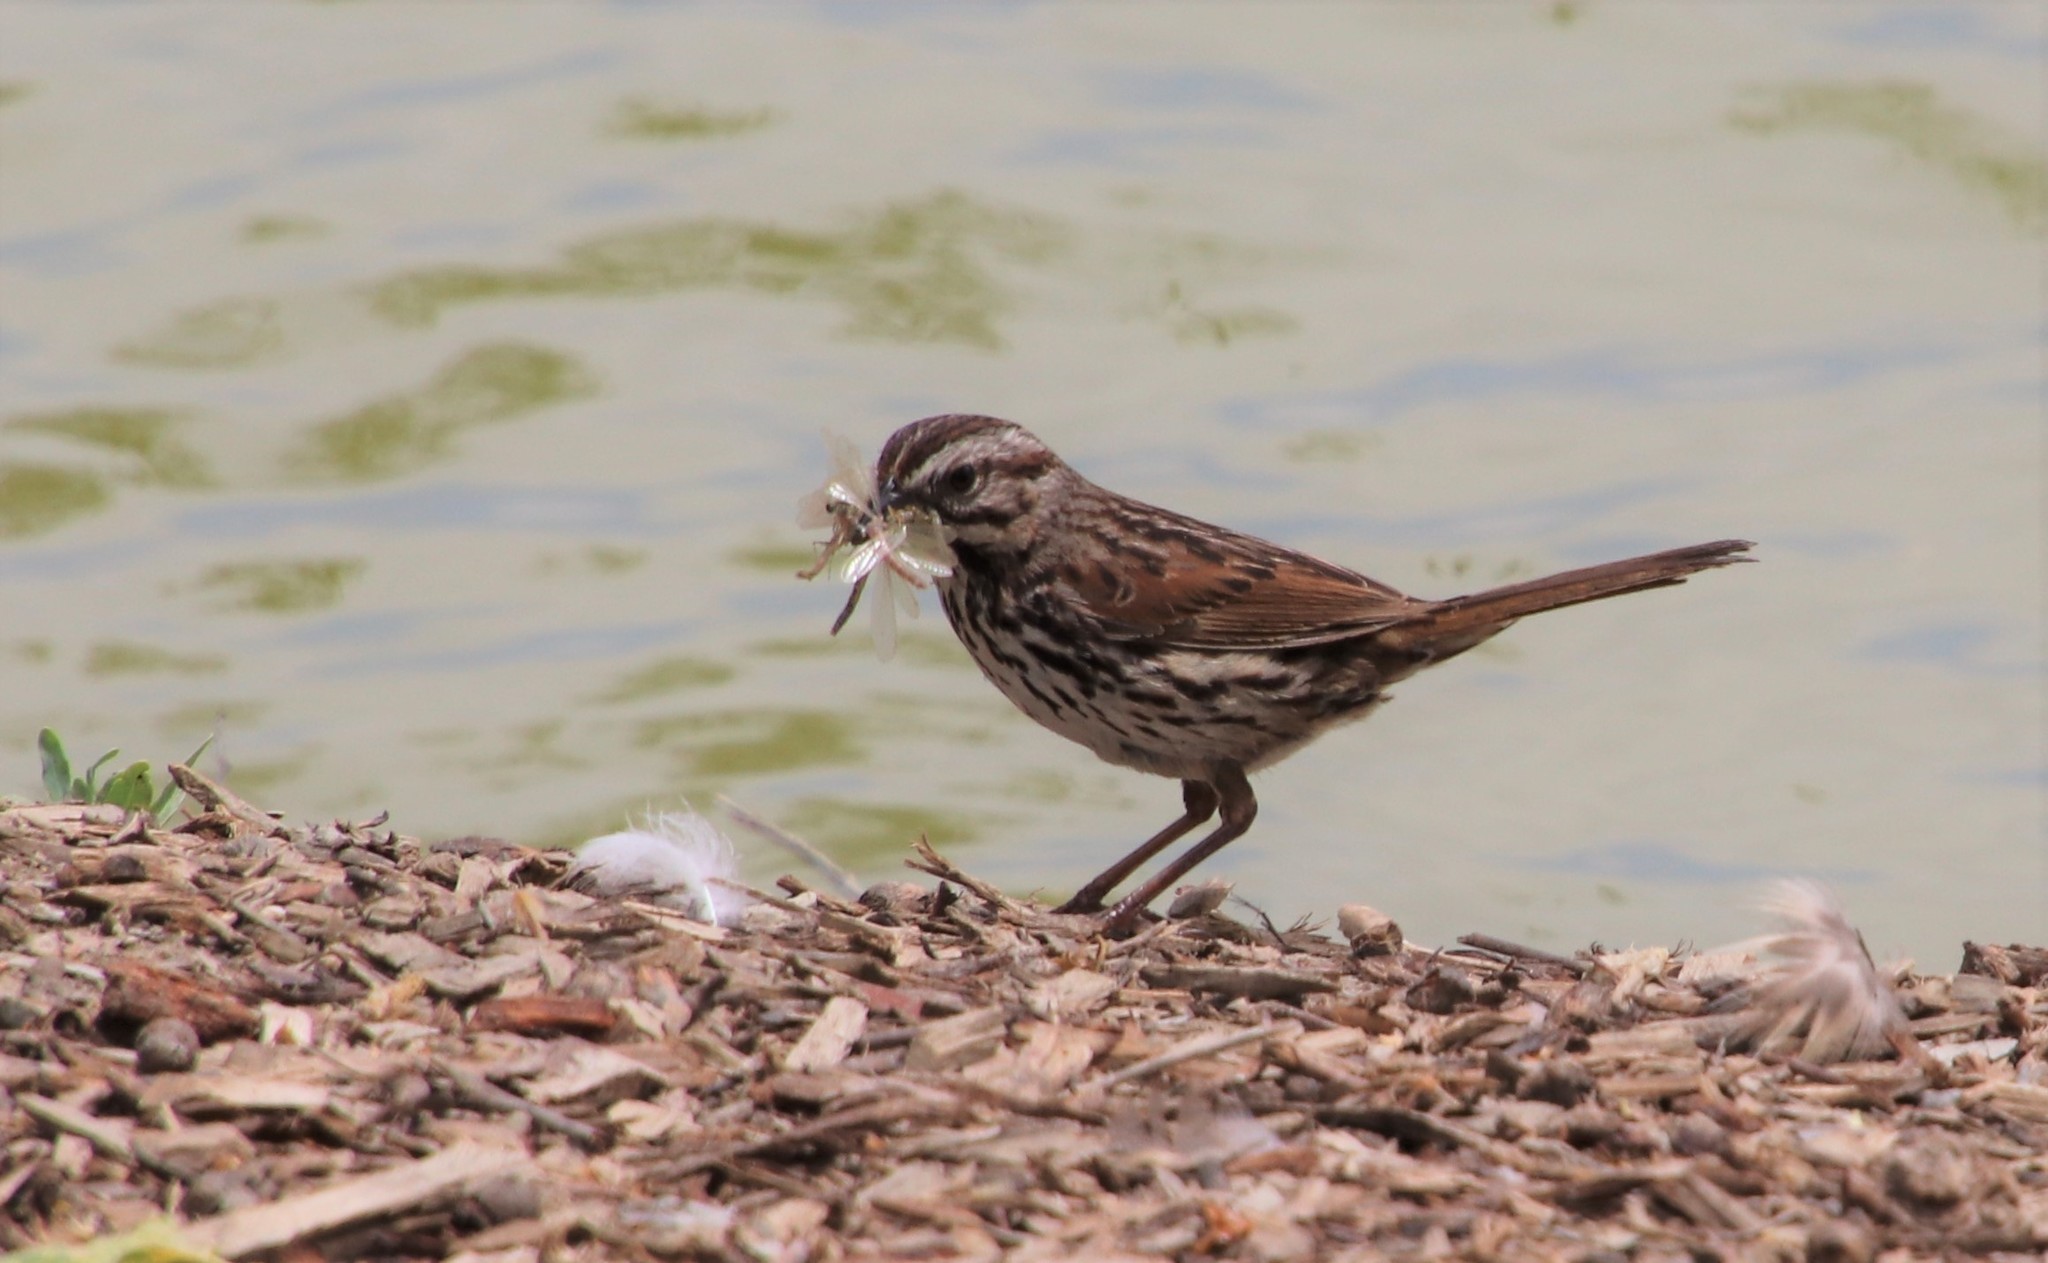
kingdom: Animalia
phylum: Chordata
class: Aves
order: Passeriformes
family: Passerellidae
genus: Melospiza
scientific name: Melospiza melodia
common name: Song sparrow
